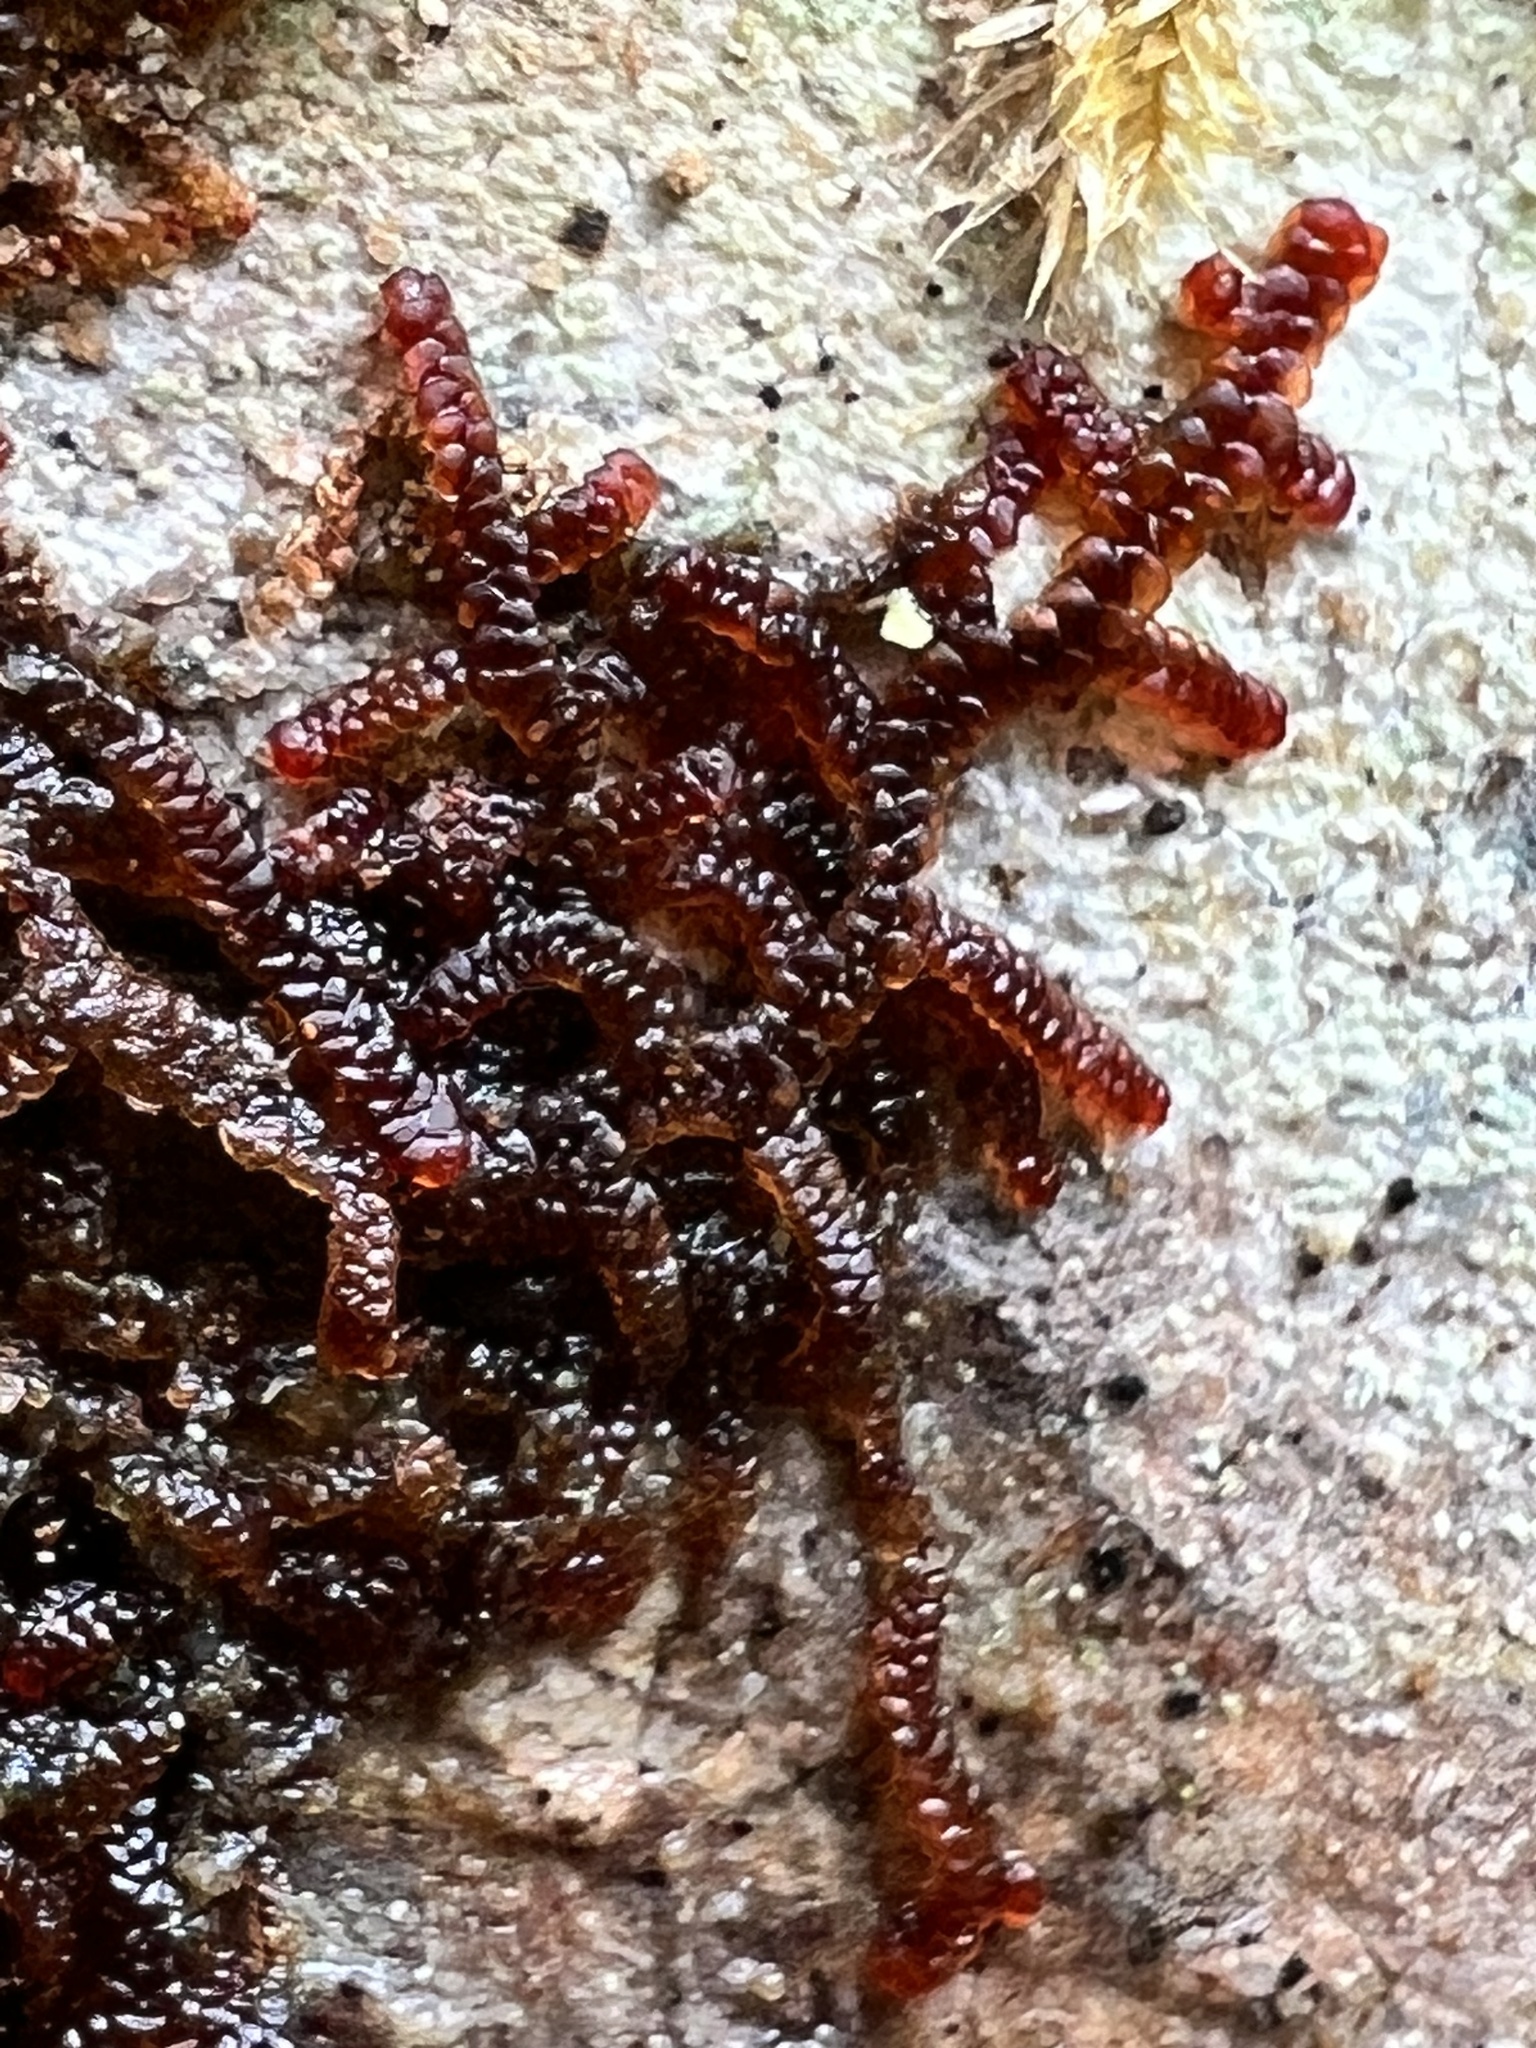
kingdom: Plantae
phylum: Marchantiophyta
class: Jungermanniopsida
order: Porellales
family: Frullaniaceae
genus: Frullania
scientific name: Frullania nisquallensis
